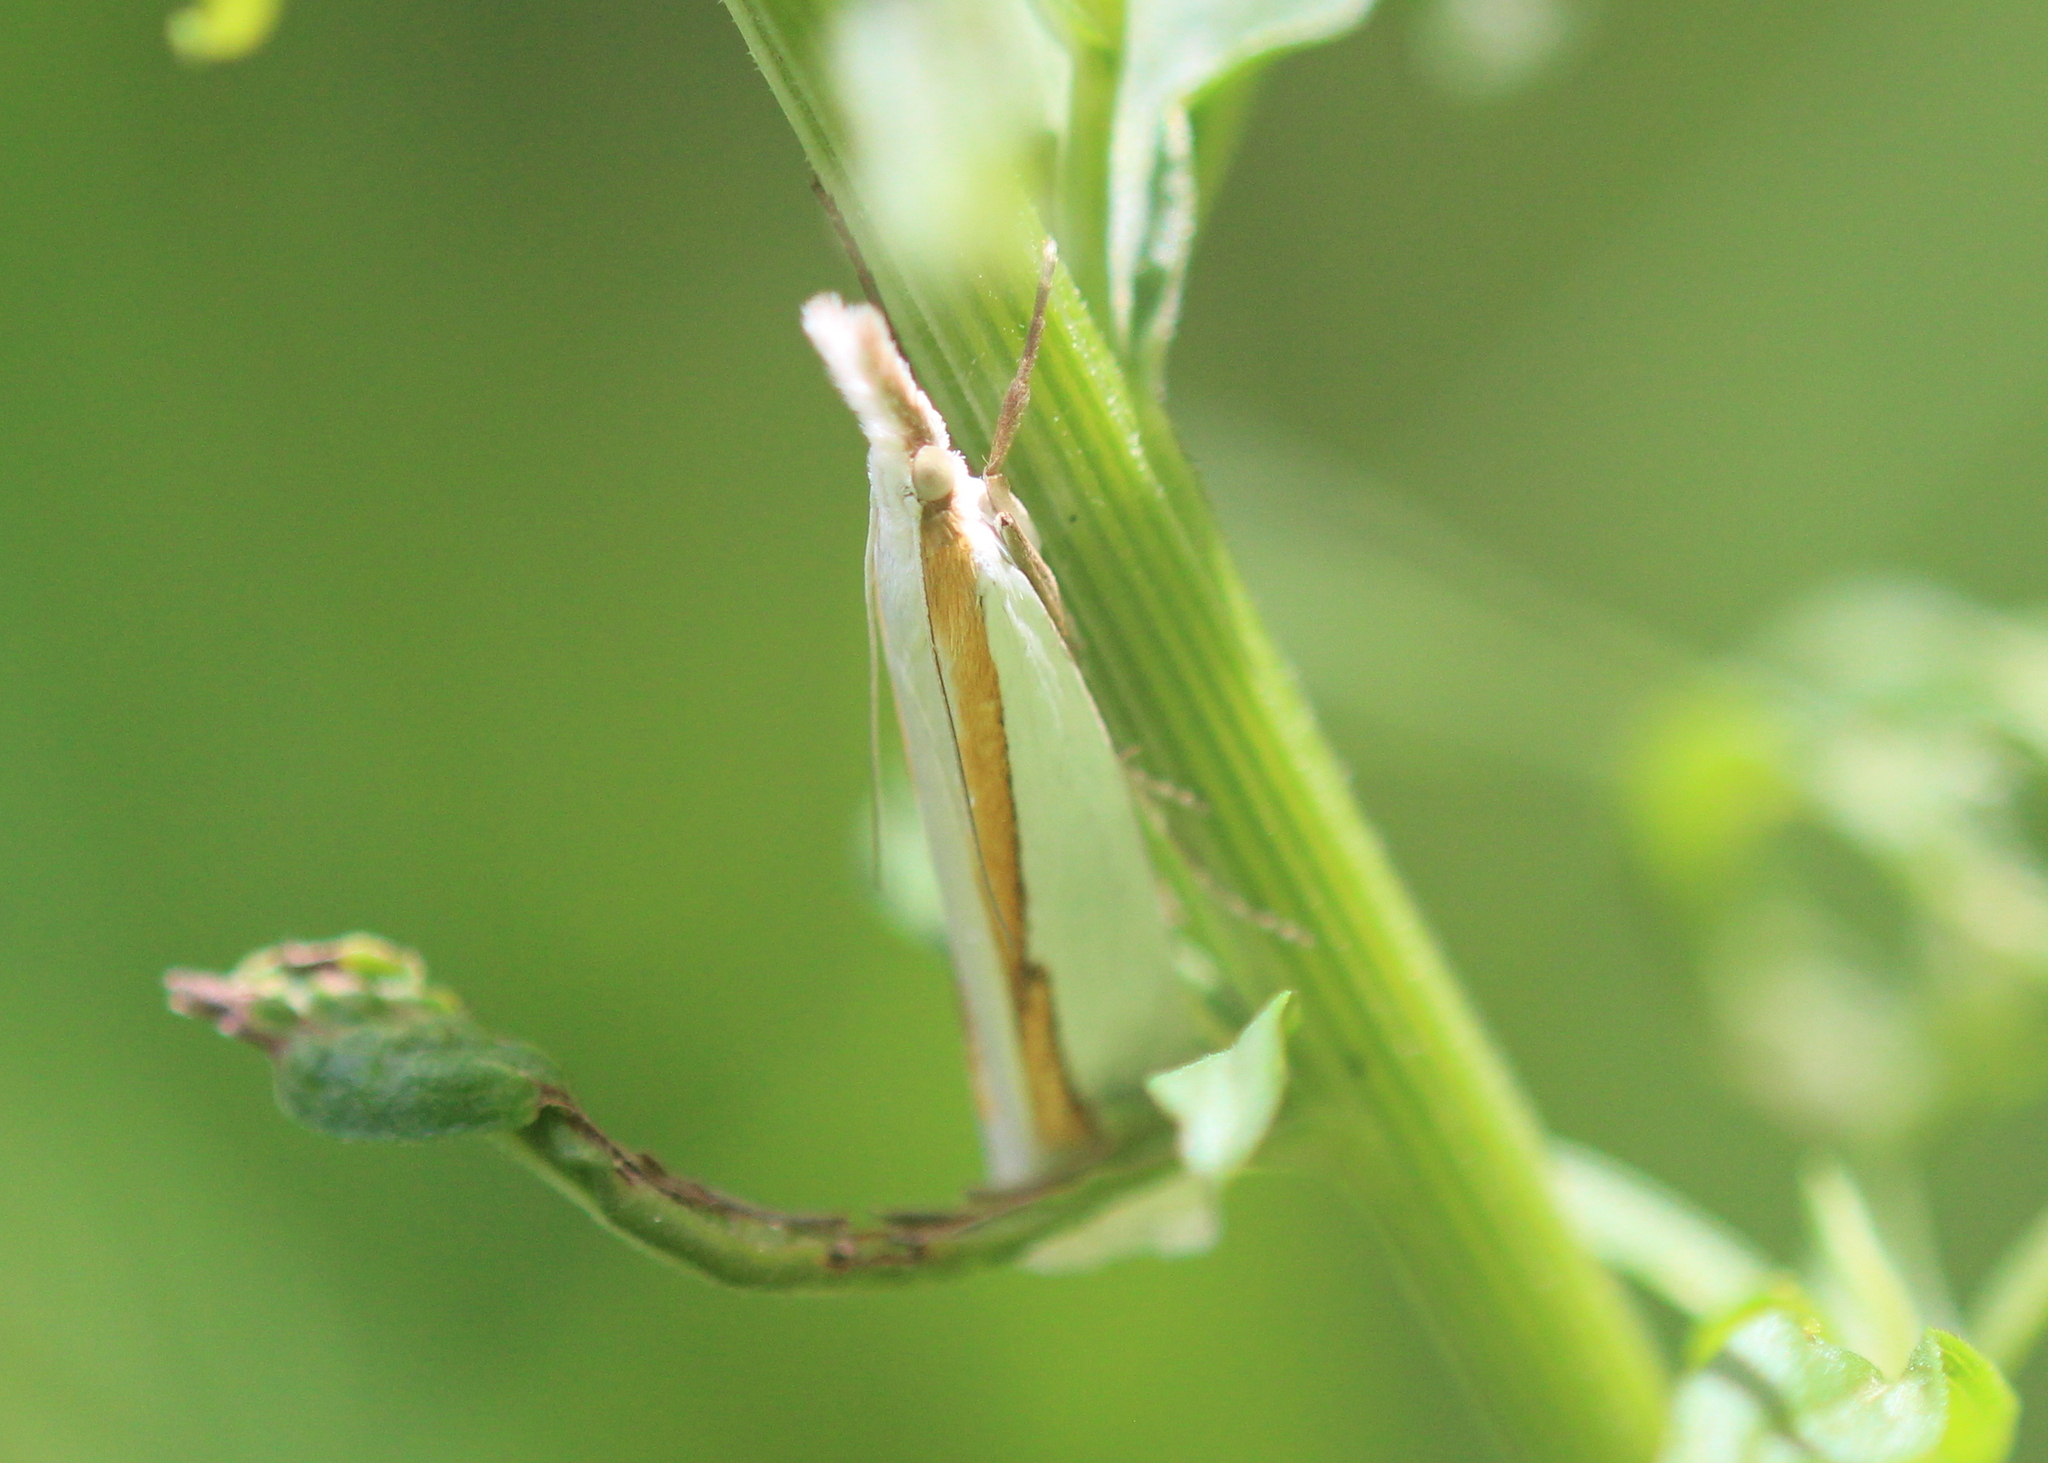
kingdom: Animalia
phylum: Arthropoda
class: Insecta
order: Lepidoptera
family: Crambidae
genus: Crambus
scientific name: Crambus girardellus
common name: Girard's grass-veneer
